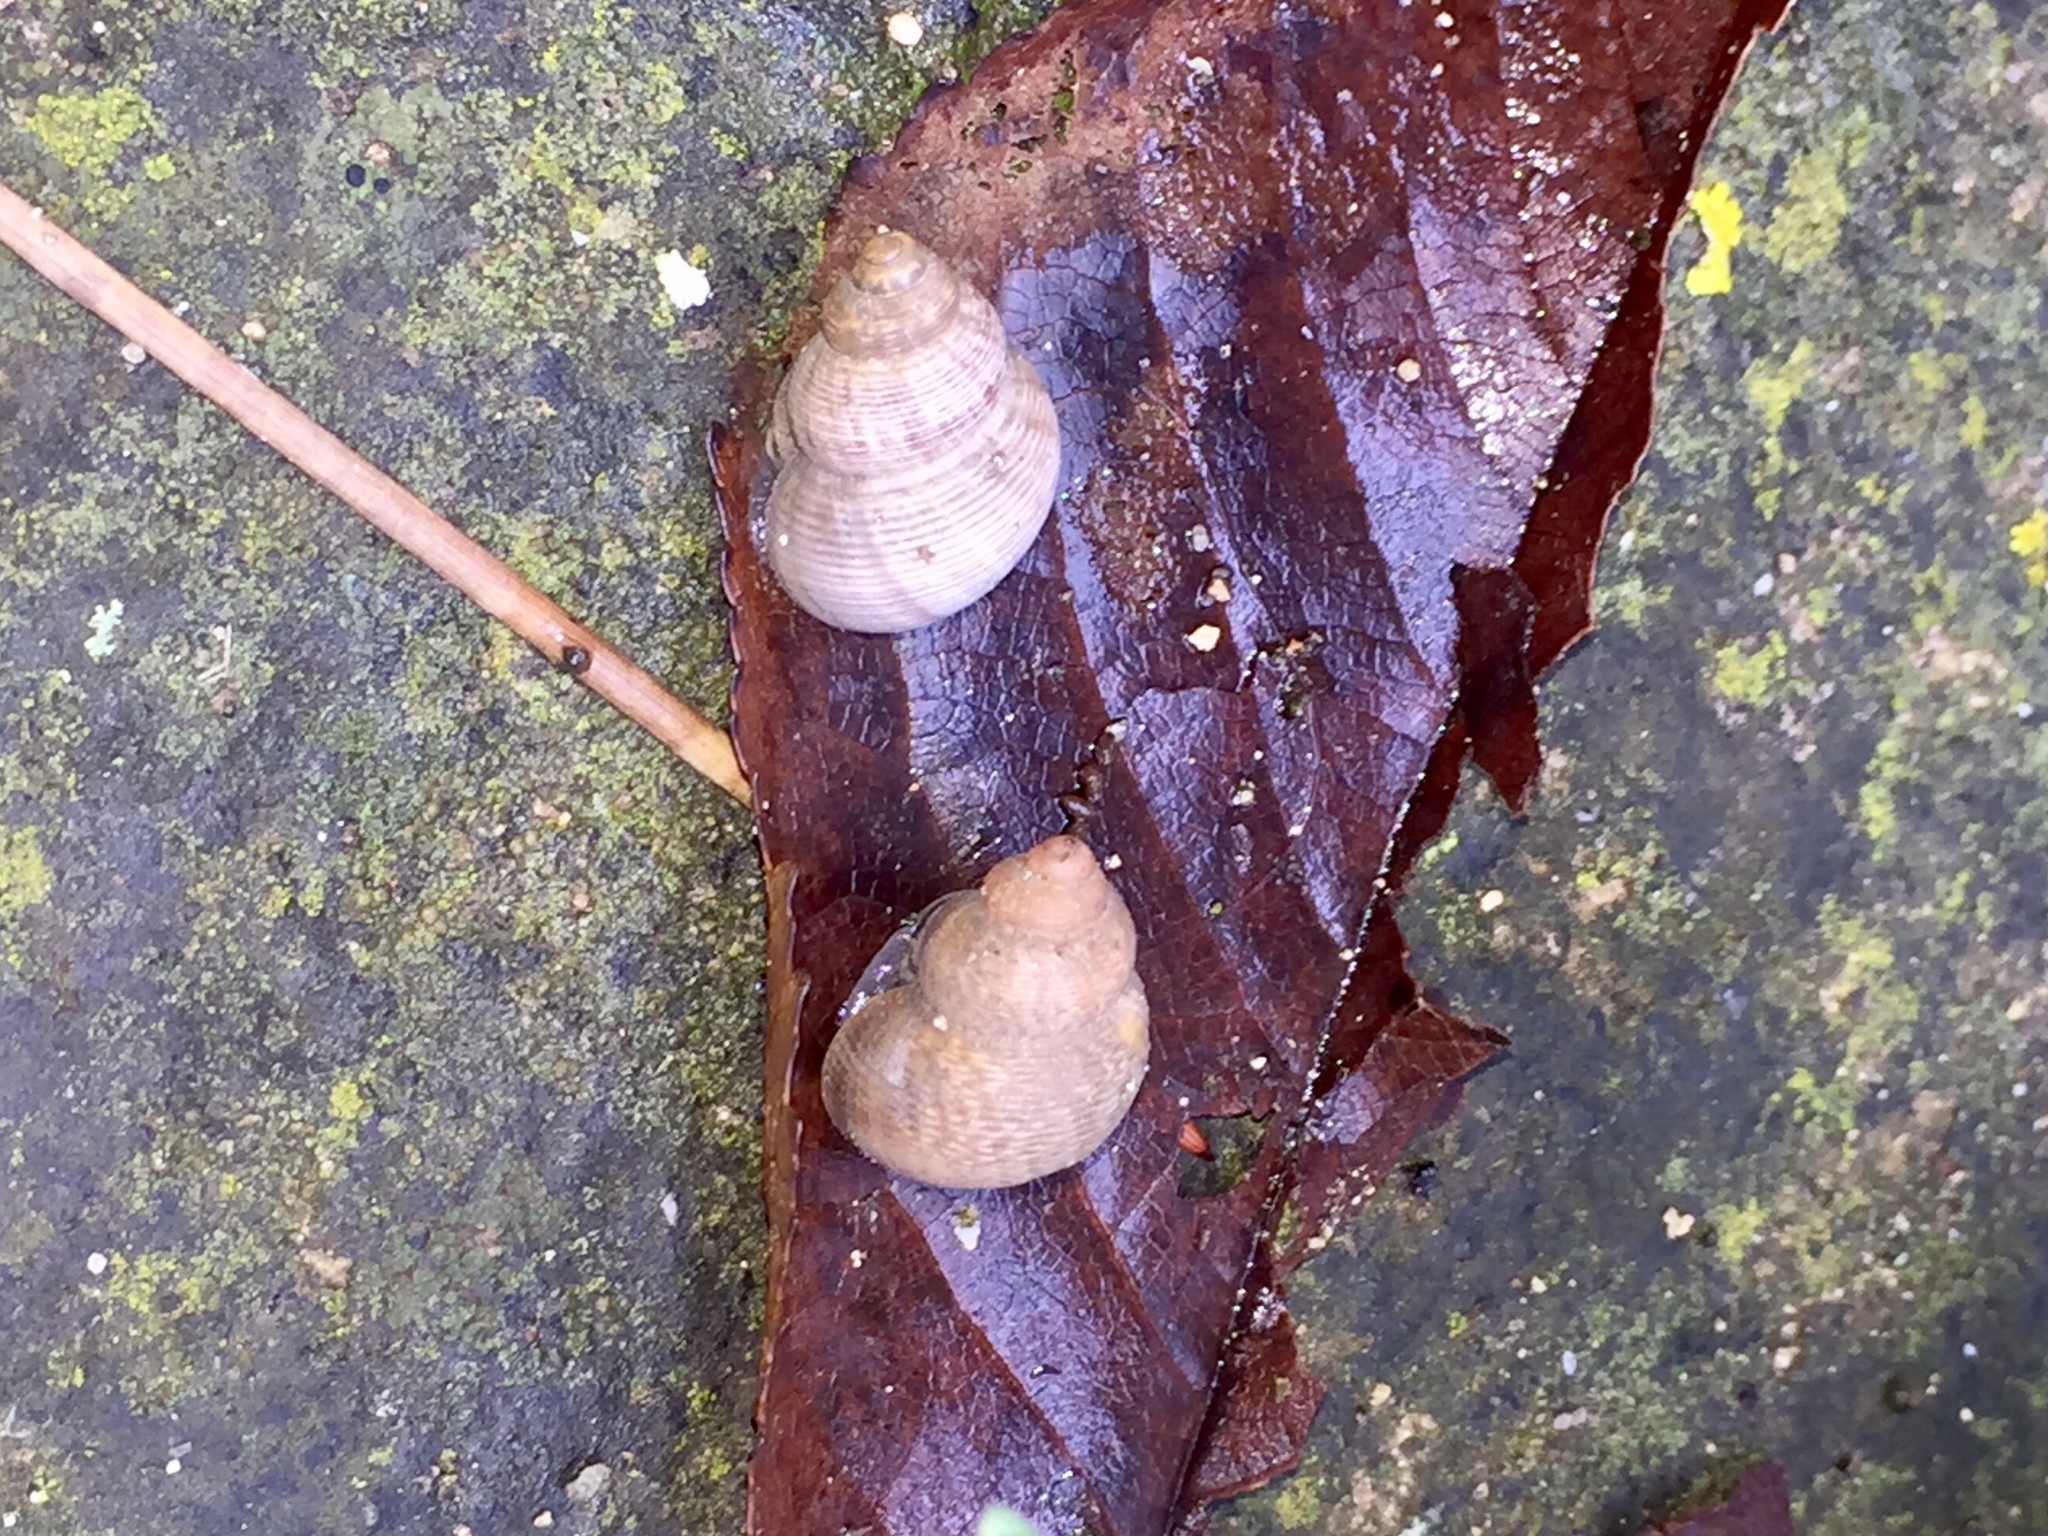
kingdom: Animalia
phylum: Mollusca
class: Gastropoda
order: Littorinimorpha
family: Pomatiidae
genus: Pomatias
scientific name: Pomatias elegans
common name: Red-mouthed snail
